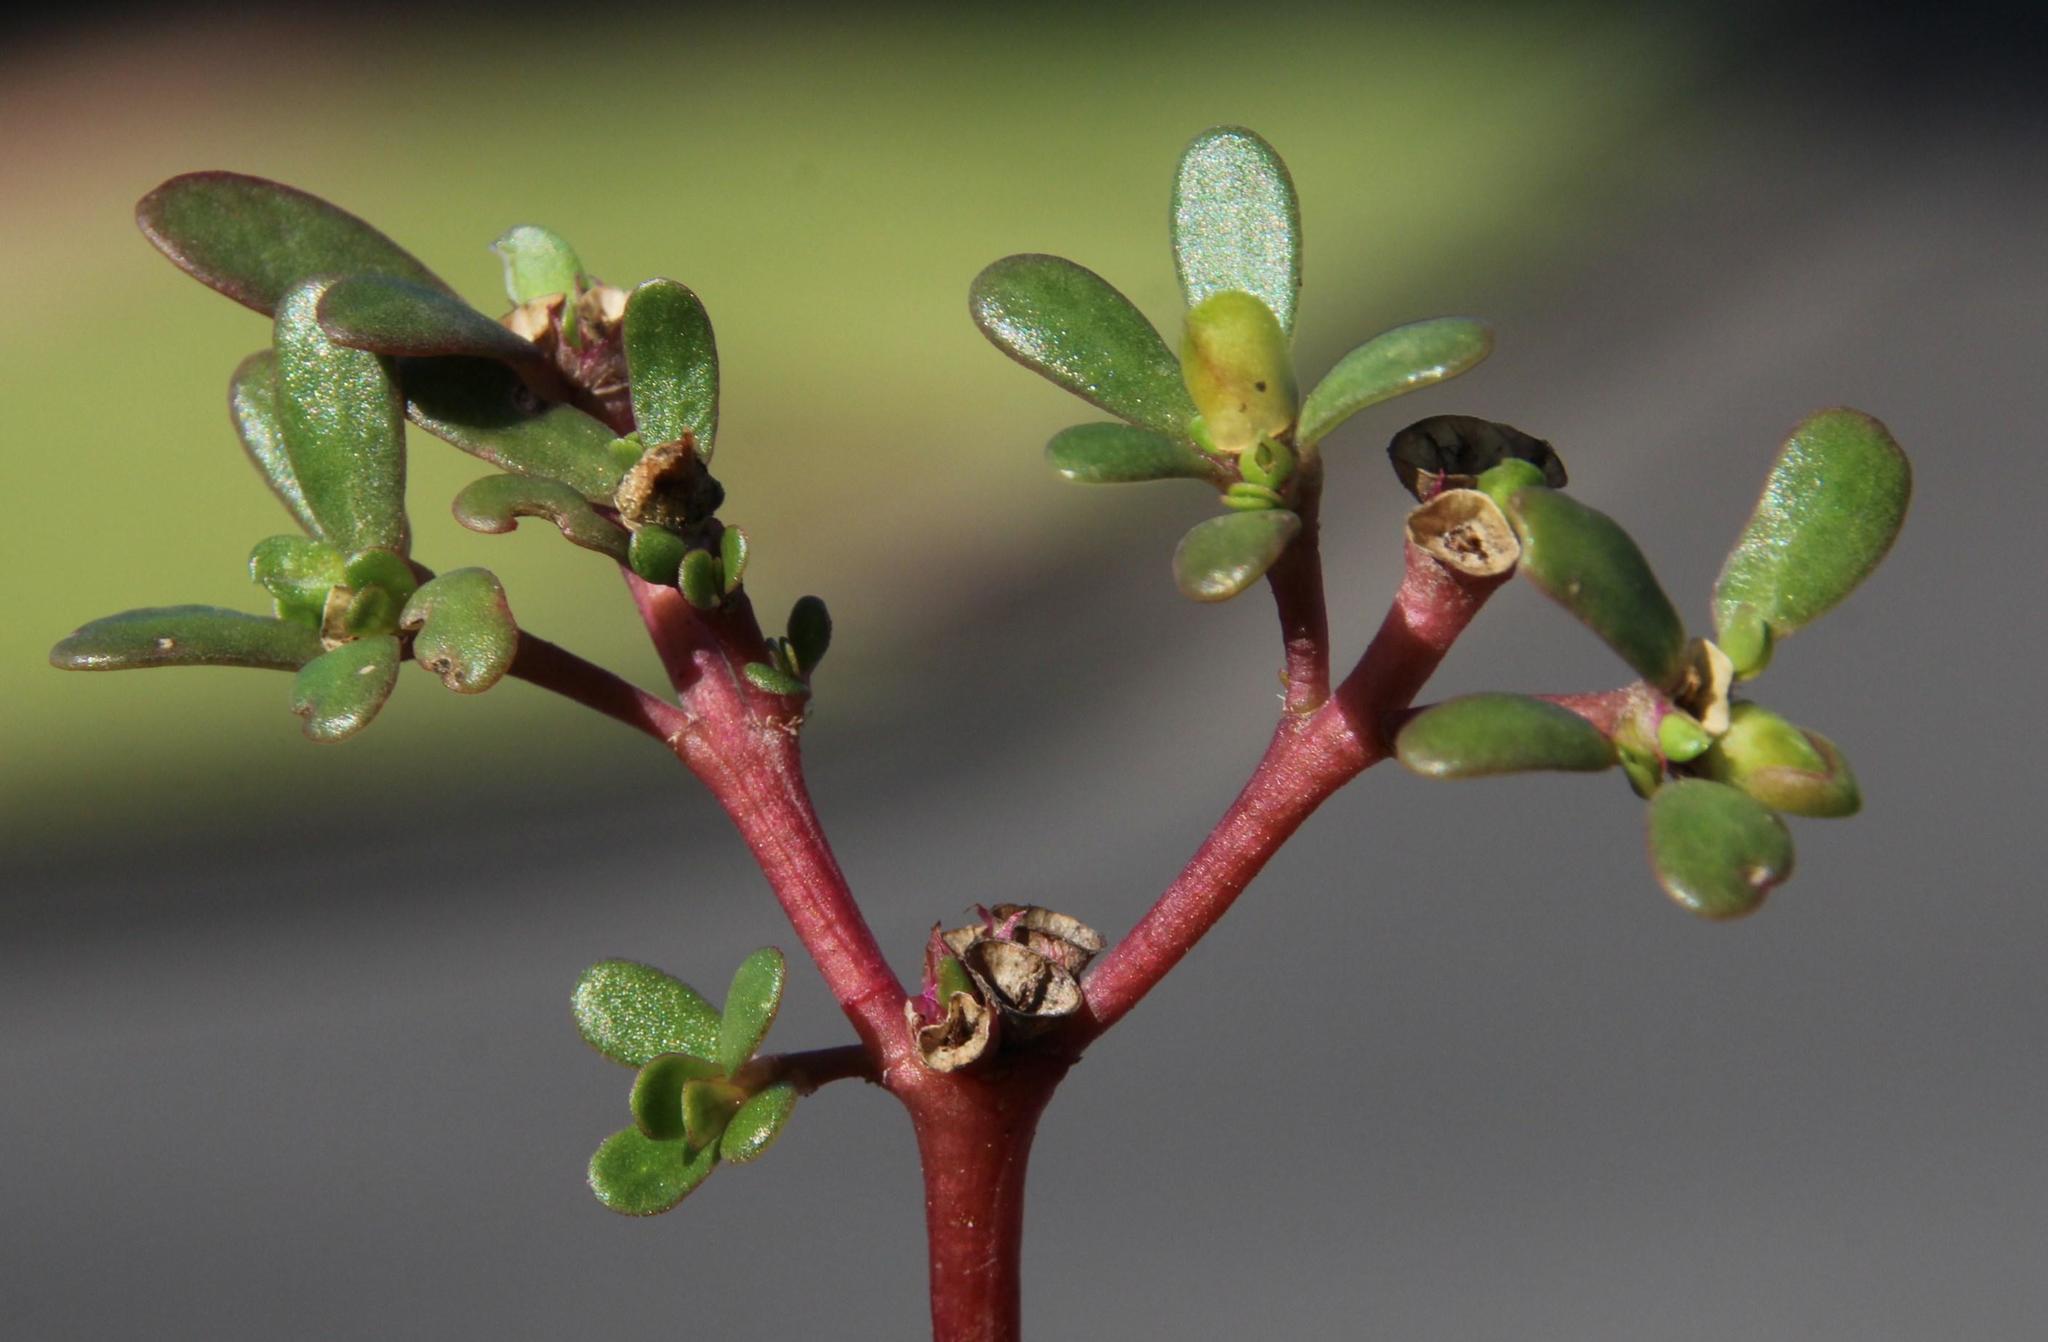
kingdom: Plantae
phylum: Tracheophyta
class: Magnoliopsida
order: Caryophyllales
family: Portulacaceae
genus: Portulaca
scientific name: Portulaca oleracea
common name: Common purslane
